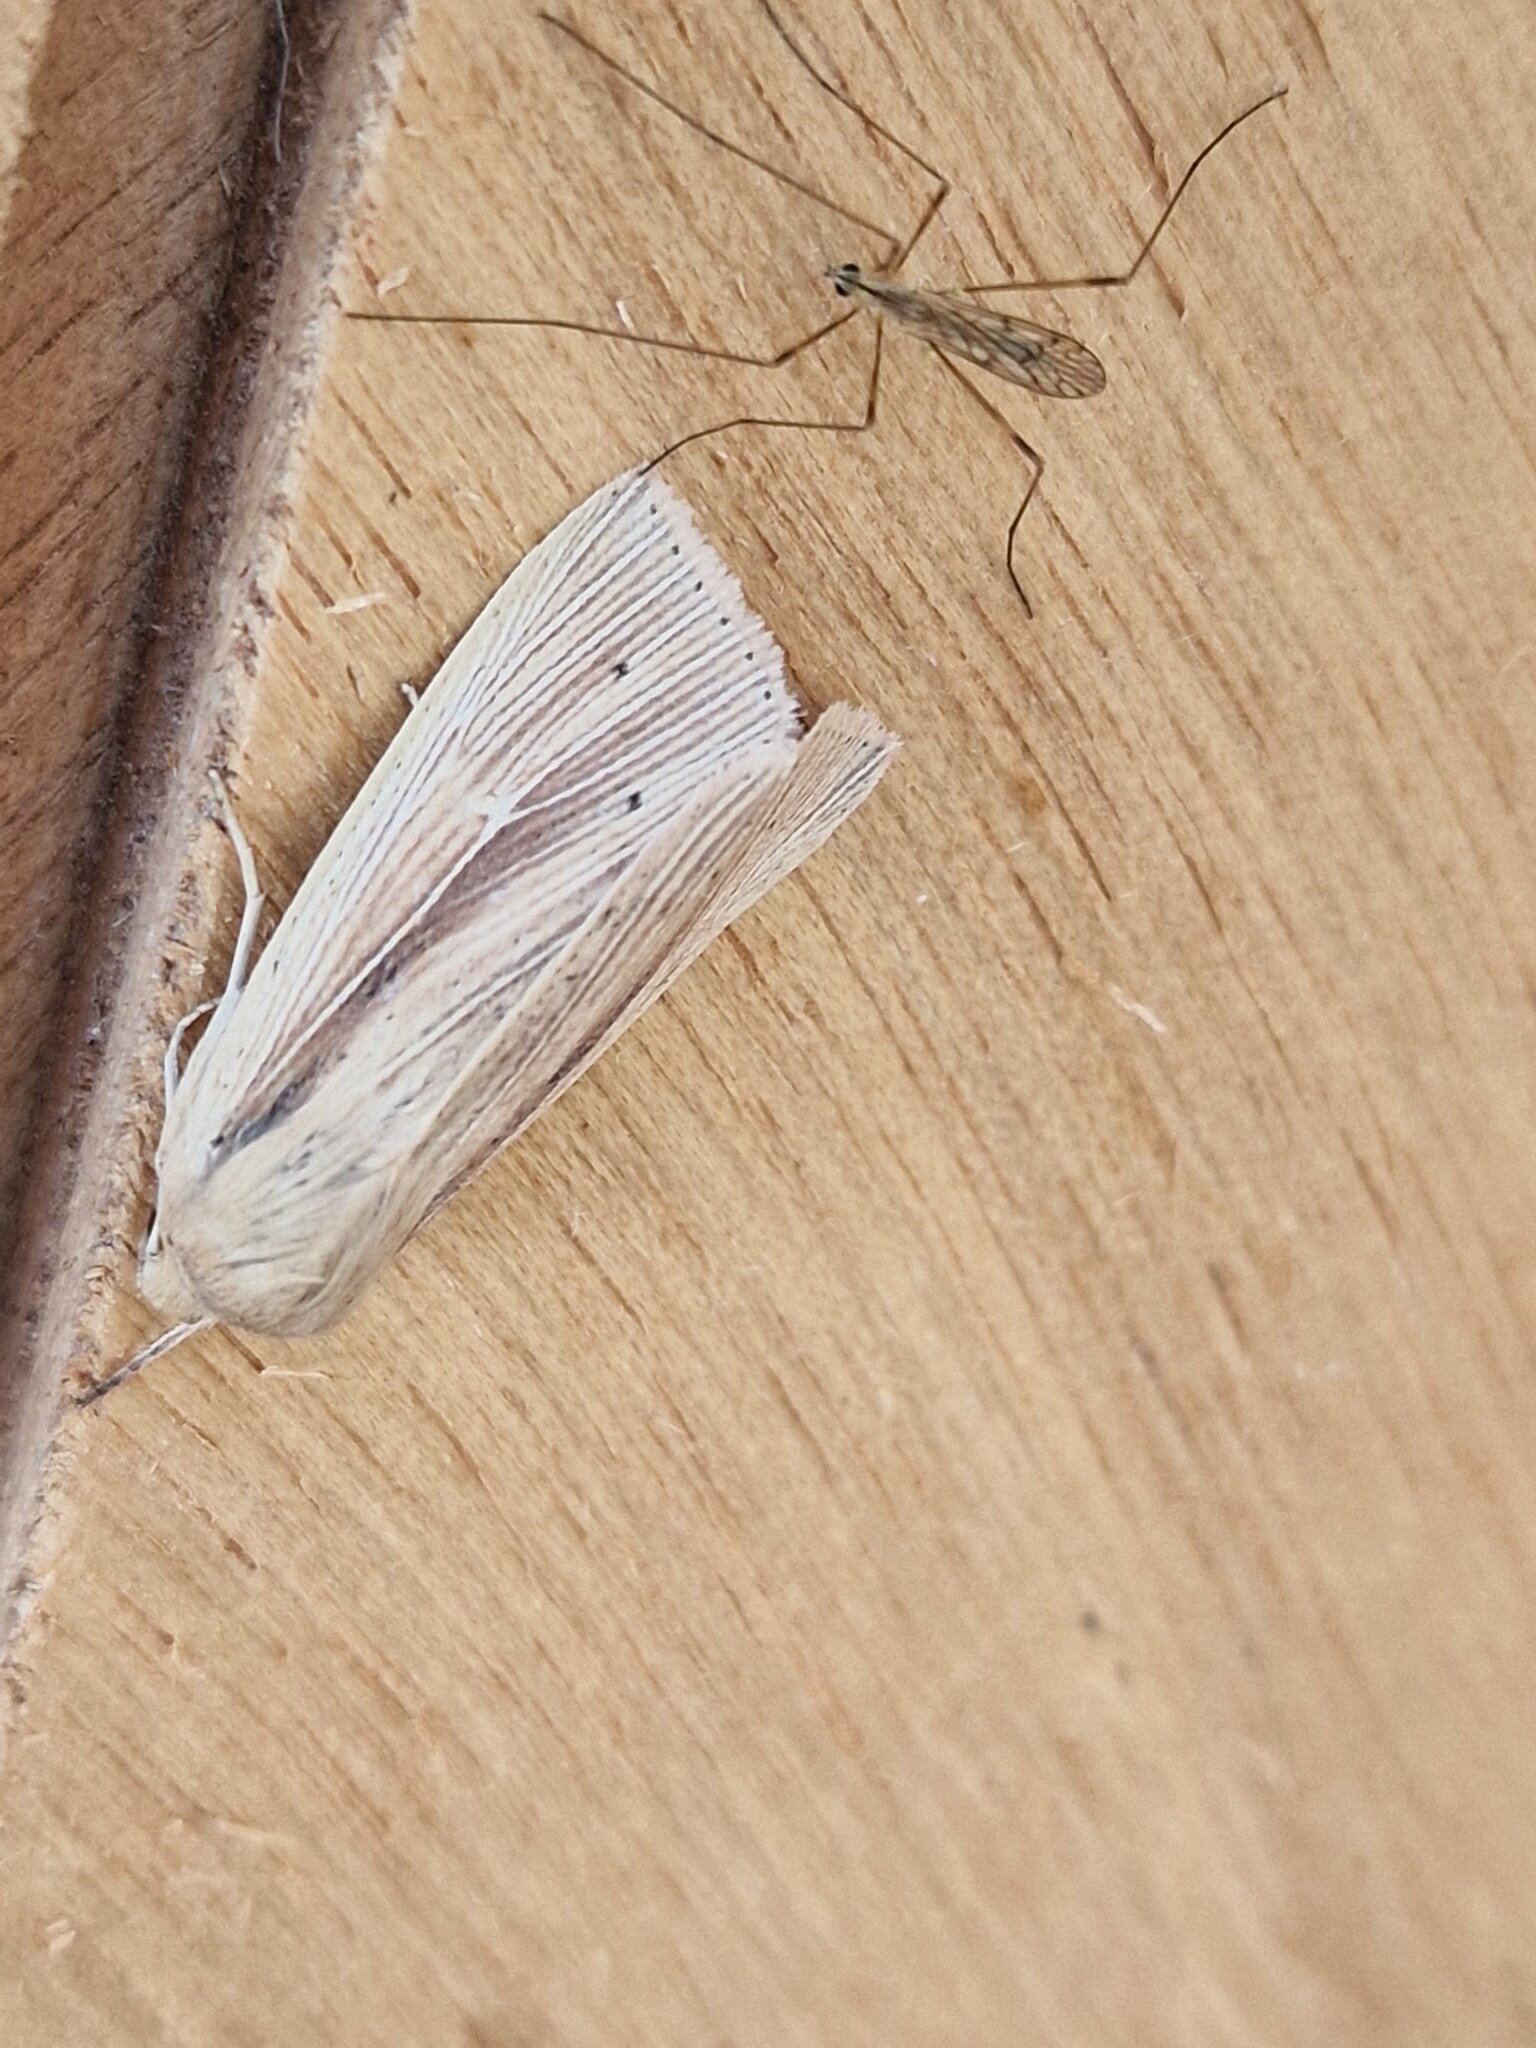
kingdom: Animalia
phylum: Arthropoda
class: Insecta
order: Lepidoptera
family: Noctuidae
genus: Mythimna
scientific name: Mythimna impura
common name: Smoky wainscot
